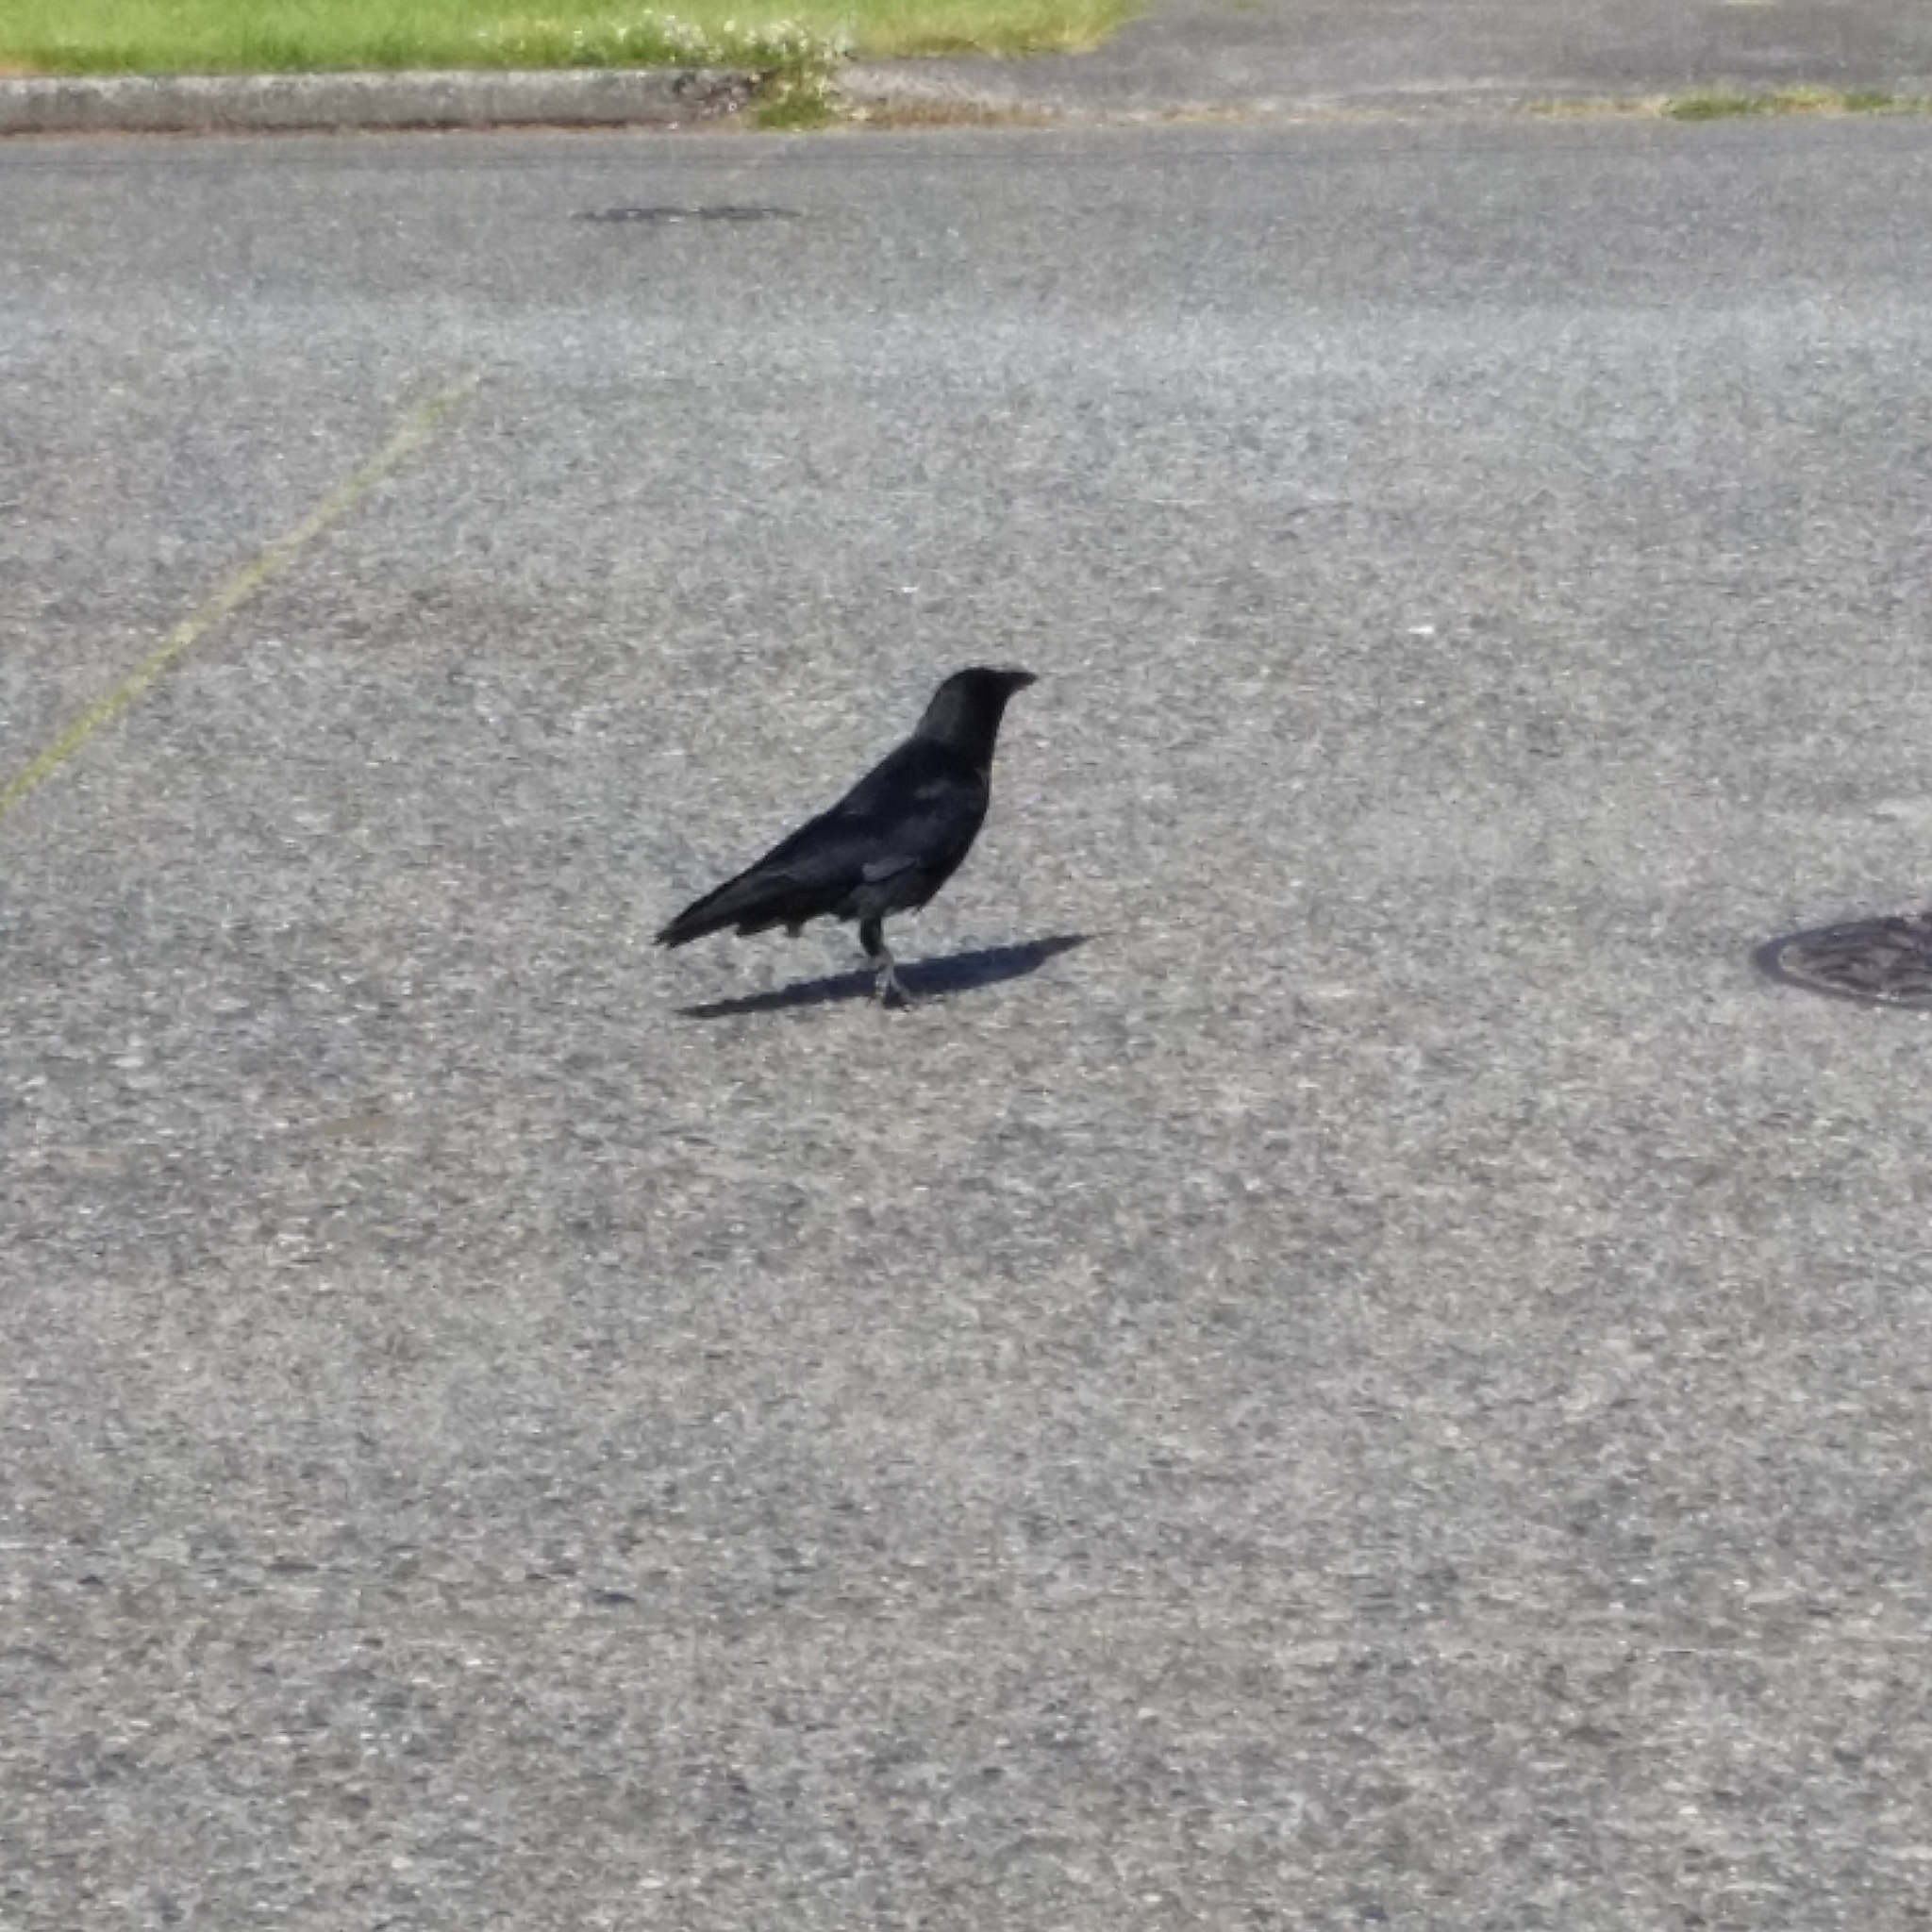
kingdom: Animalia
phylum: Chordata
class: Aves
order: Passeriformes
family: Corvidae
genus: Corvus
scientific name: Corvus brachyrhynchos
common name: American crow
